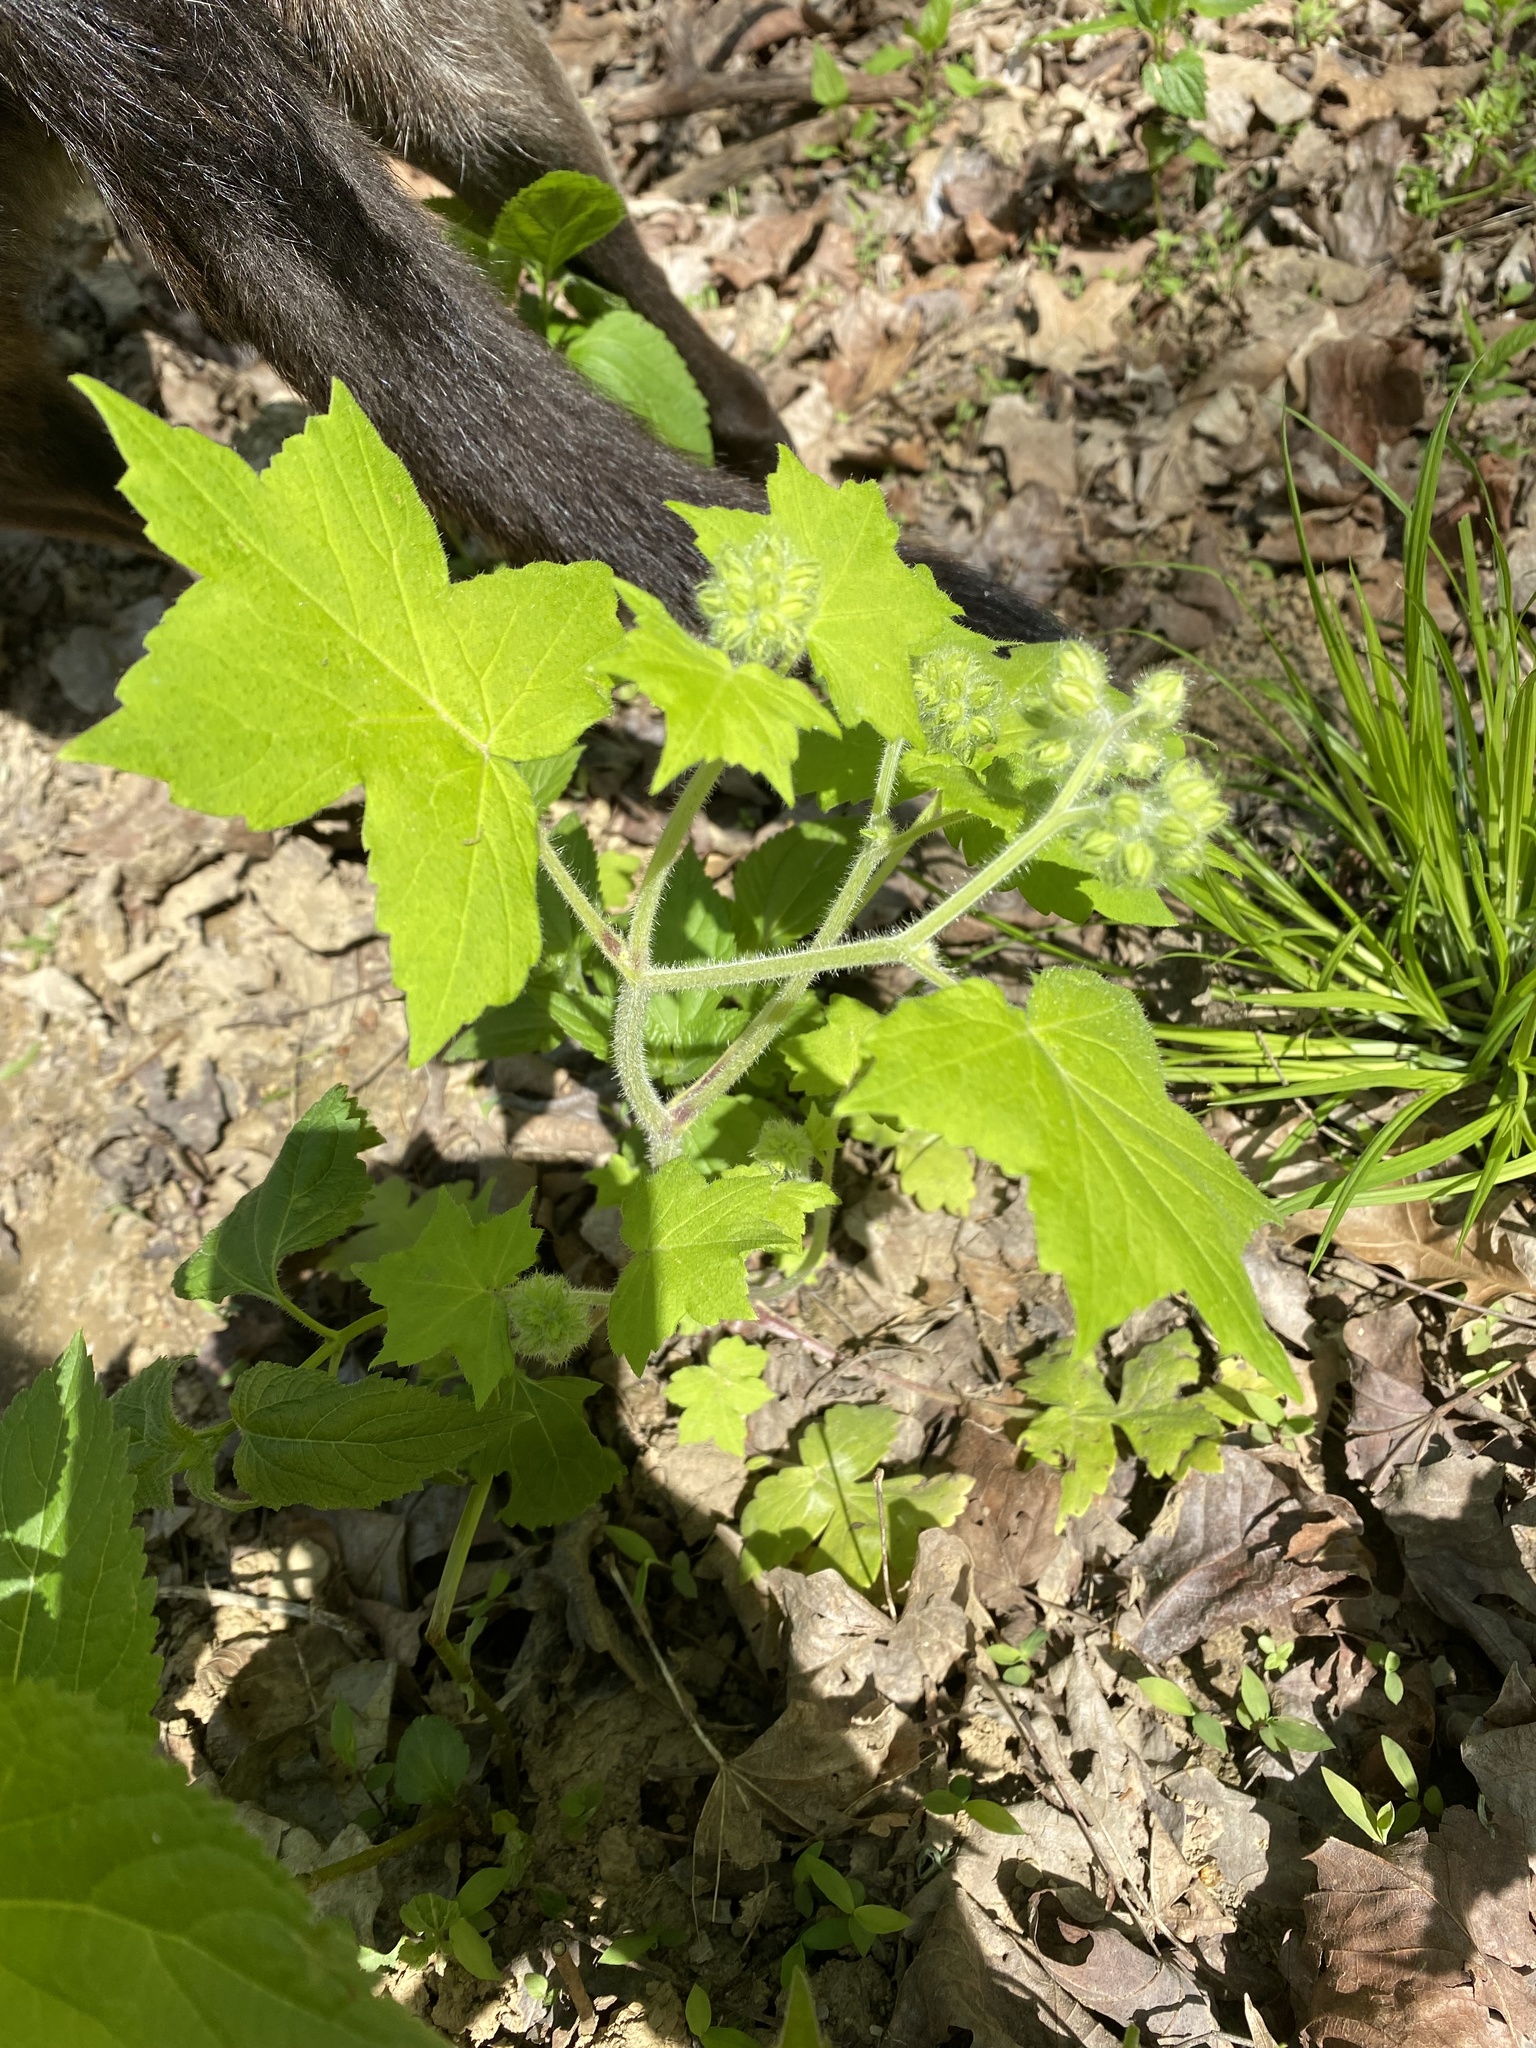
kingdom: Plantae
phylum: Tracheophyta
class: Magnoliopsida
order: Boraginales
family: Hydrophyllaceae
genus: Hydrophyllum
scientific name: Hydrophyllum appendiculatum
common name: Appendaged waterleaf
